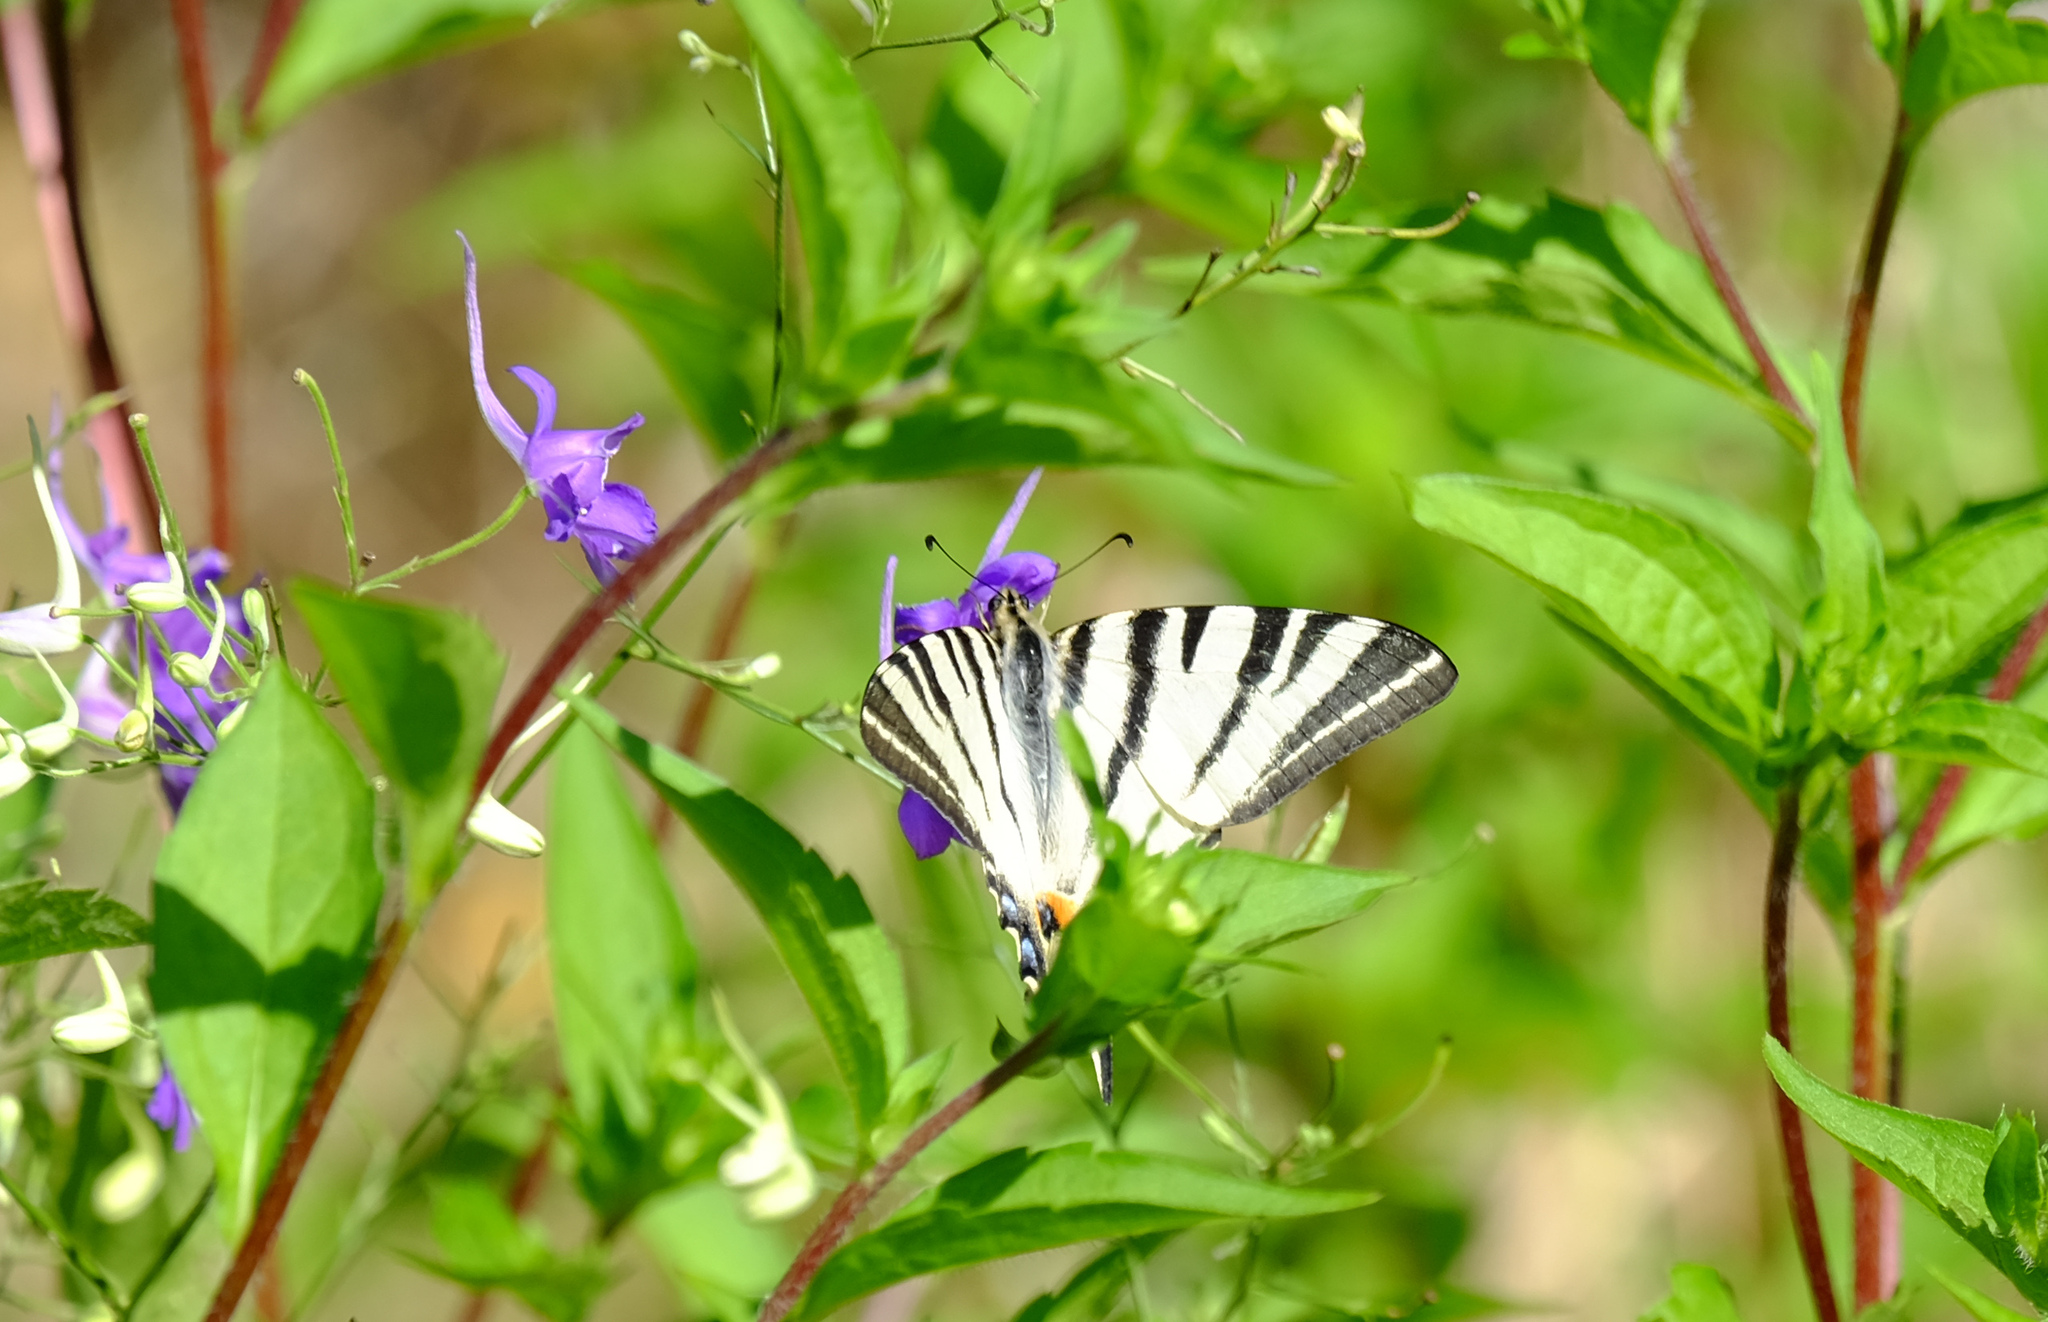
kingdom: Animalia
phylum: Arthropoda
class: Insecta
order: Lepidoptera
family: Papilionidae
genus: Iphiclides
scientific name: Iphiclides podalirius
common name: Scarce swallowtail
